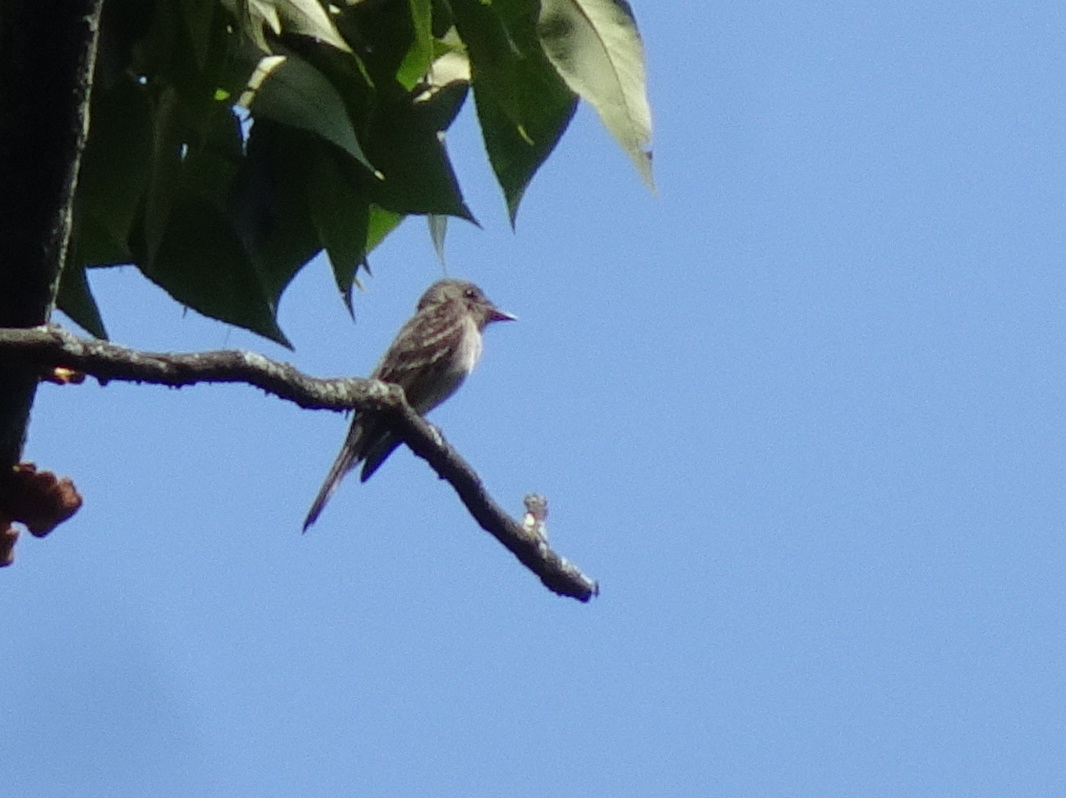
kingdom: Animalia
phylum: Chordata
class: Aves
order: Passeriformes
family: Tyrannidae
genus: Contopus
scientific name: Contopus virens
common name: Eastern wood-pewee
